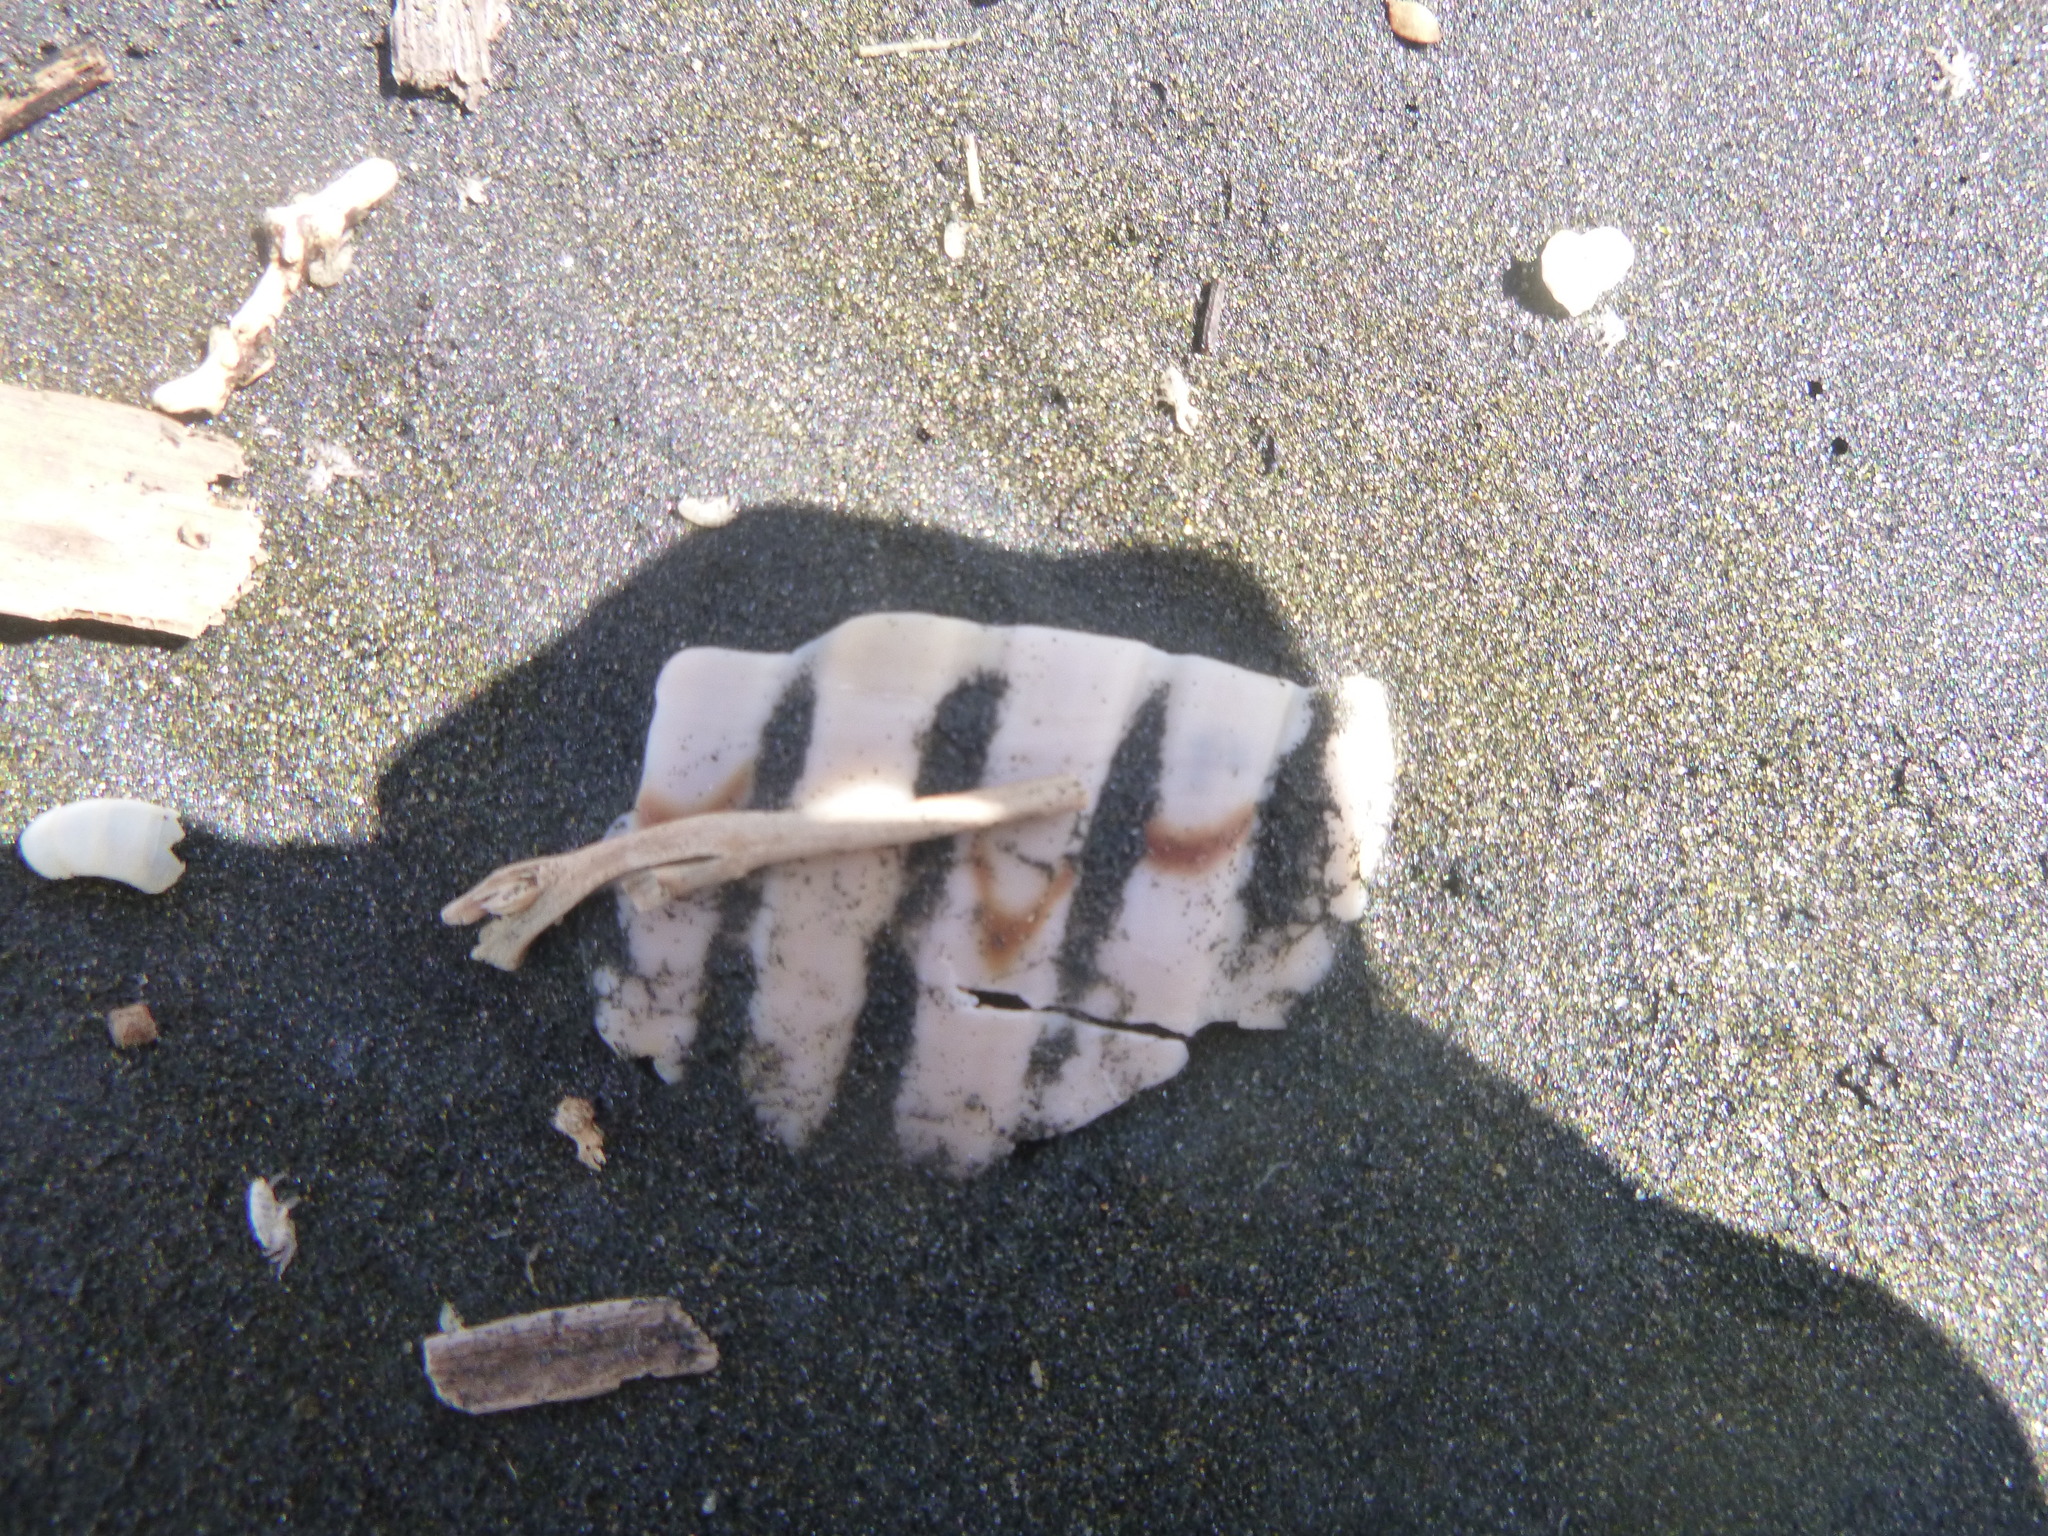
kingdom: Animalia
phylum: Mollusca
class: Gastropoda
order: Littorinimorpha
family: Tonnidae
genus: Tonna
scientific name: Tonna tankervillii
